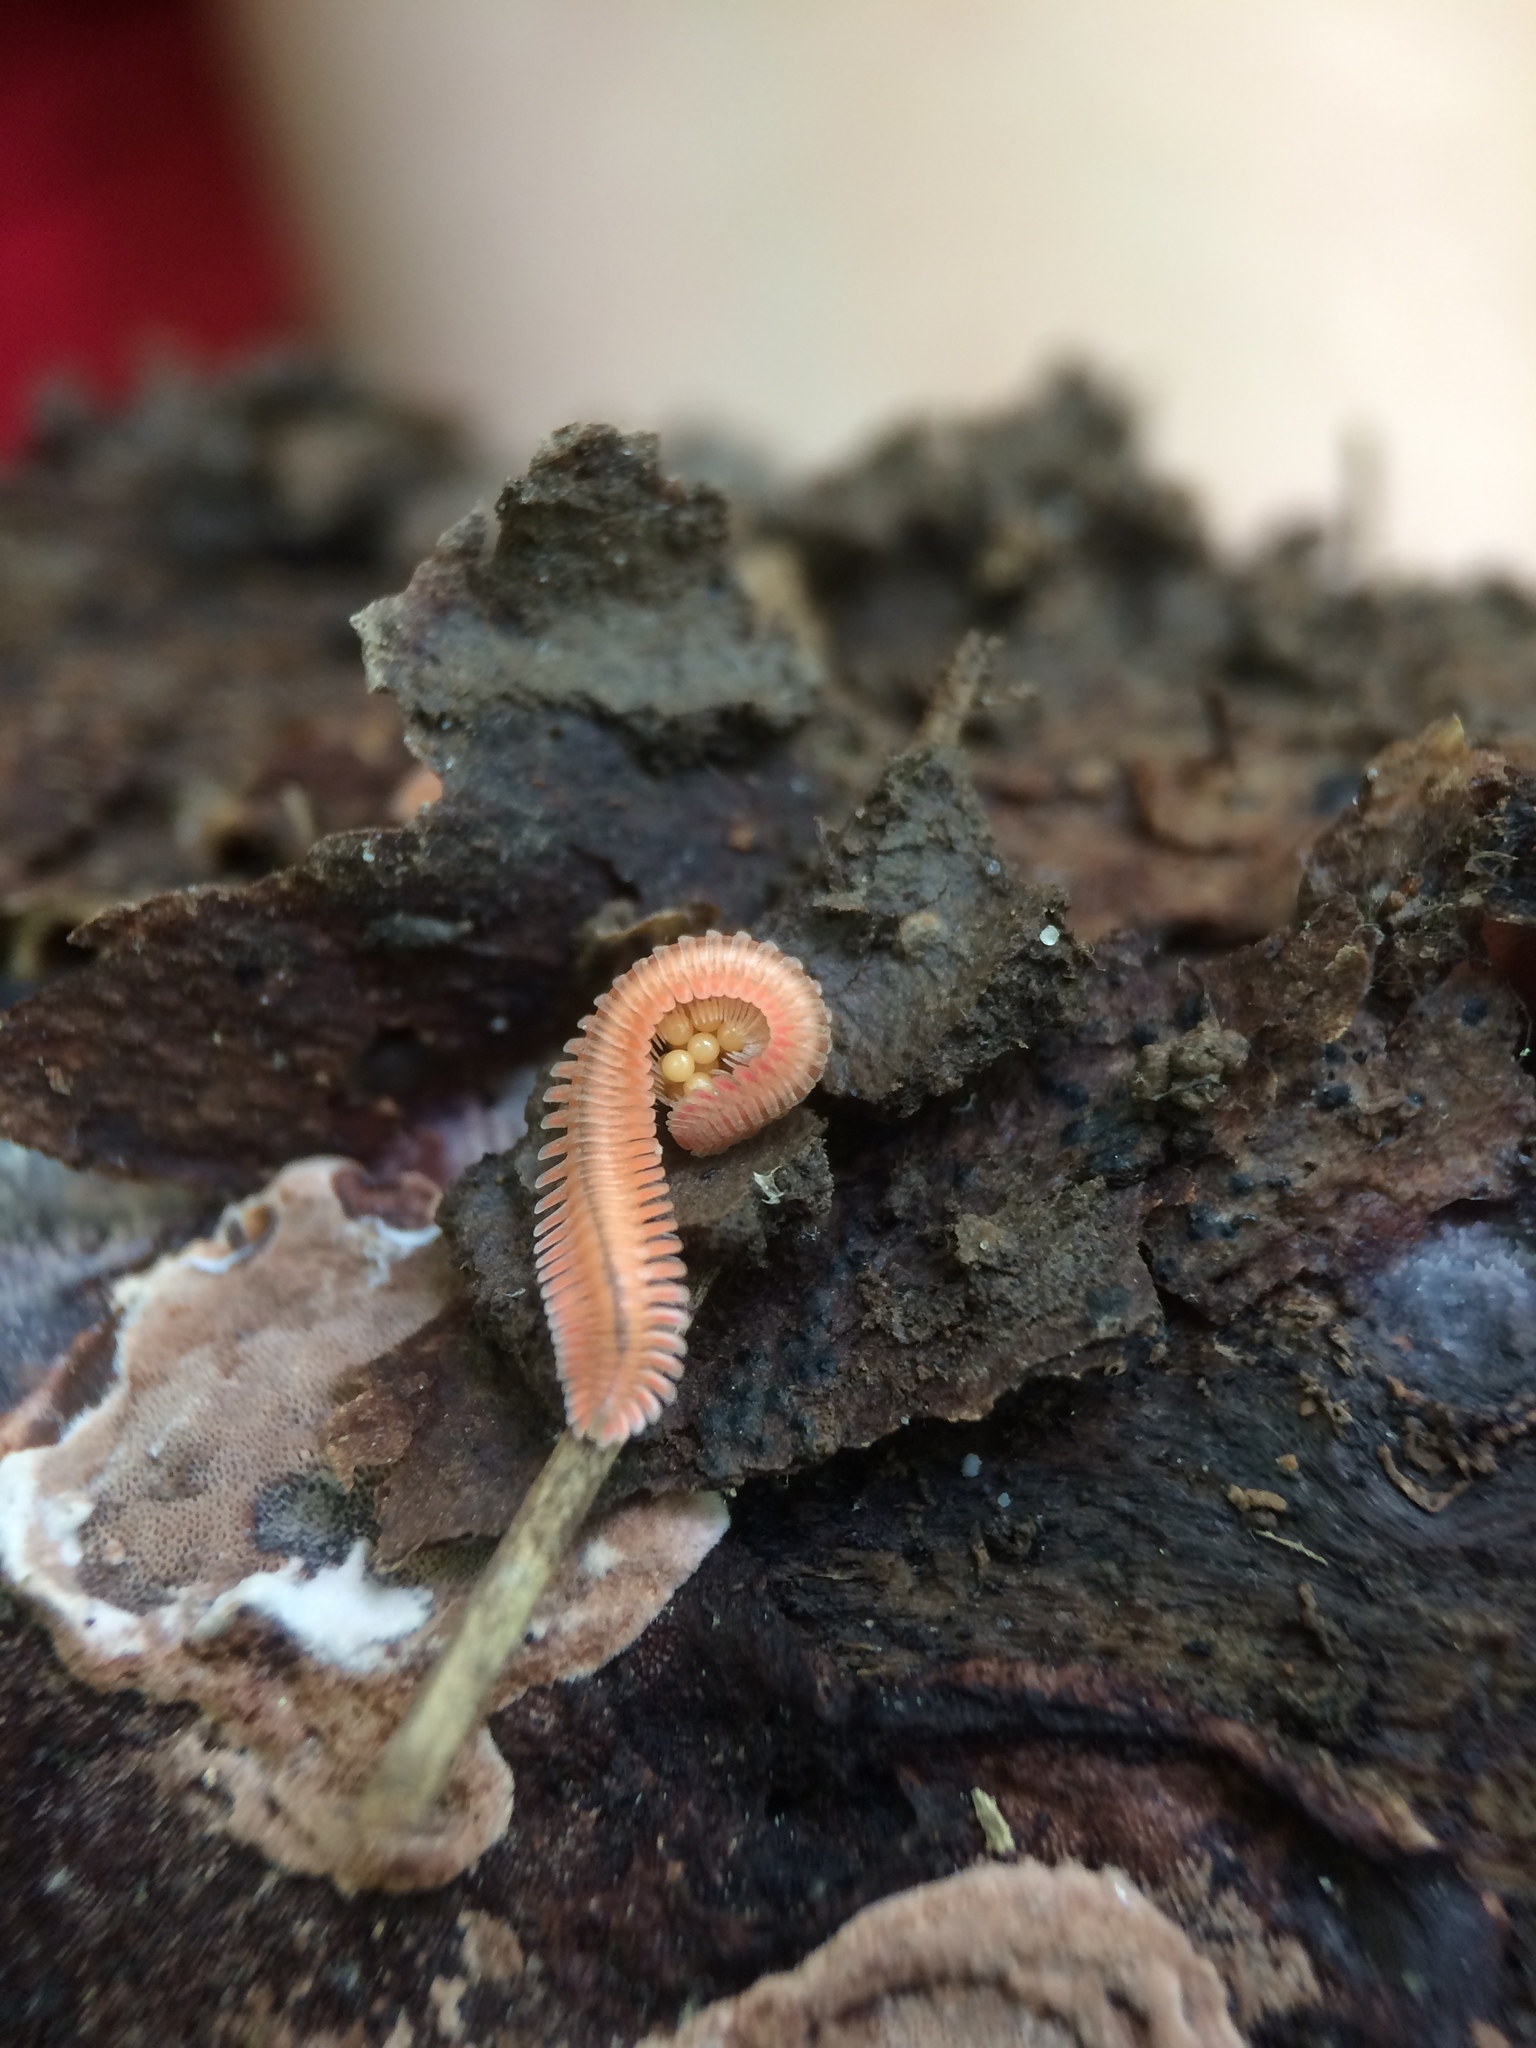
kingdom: Animalia
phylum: Arthropoda
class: Diplopoda
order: Platydesmida
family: Andrognathidae
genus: Brachycybe
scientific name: Brachycybe lecontii
